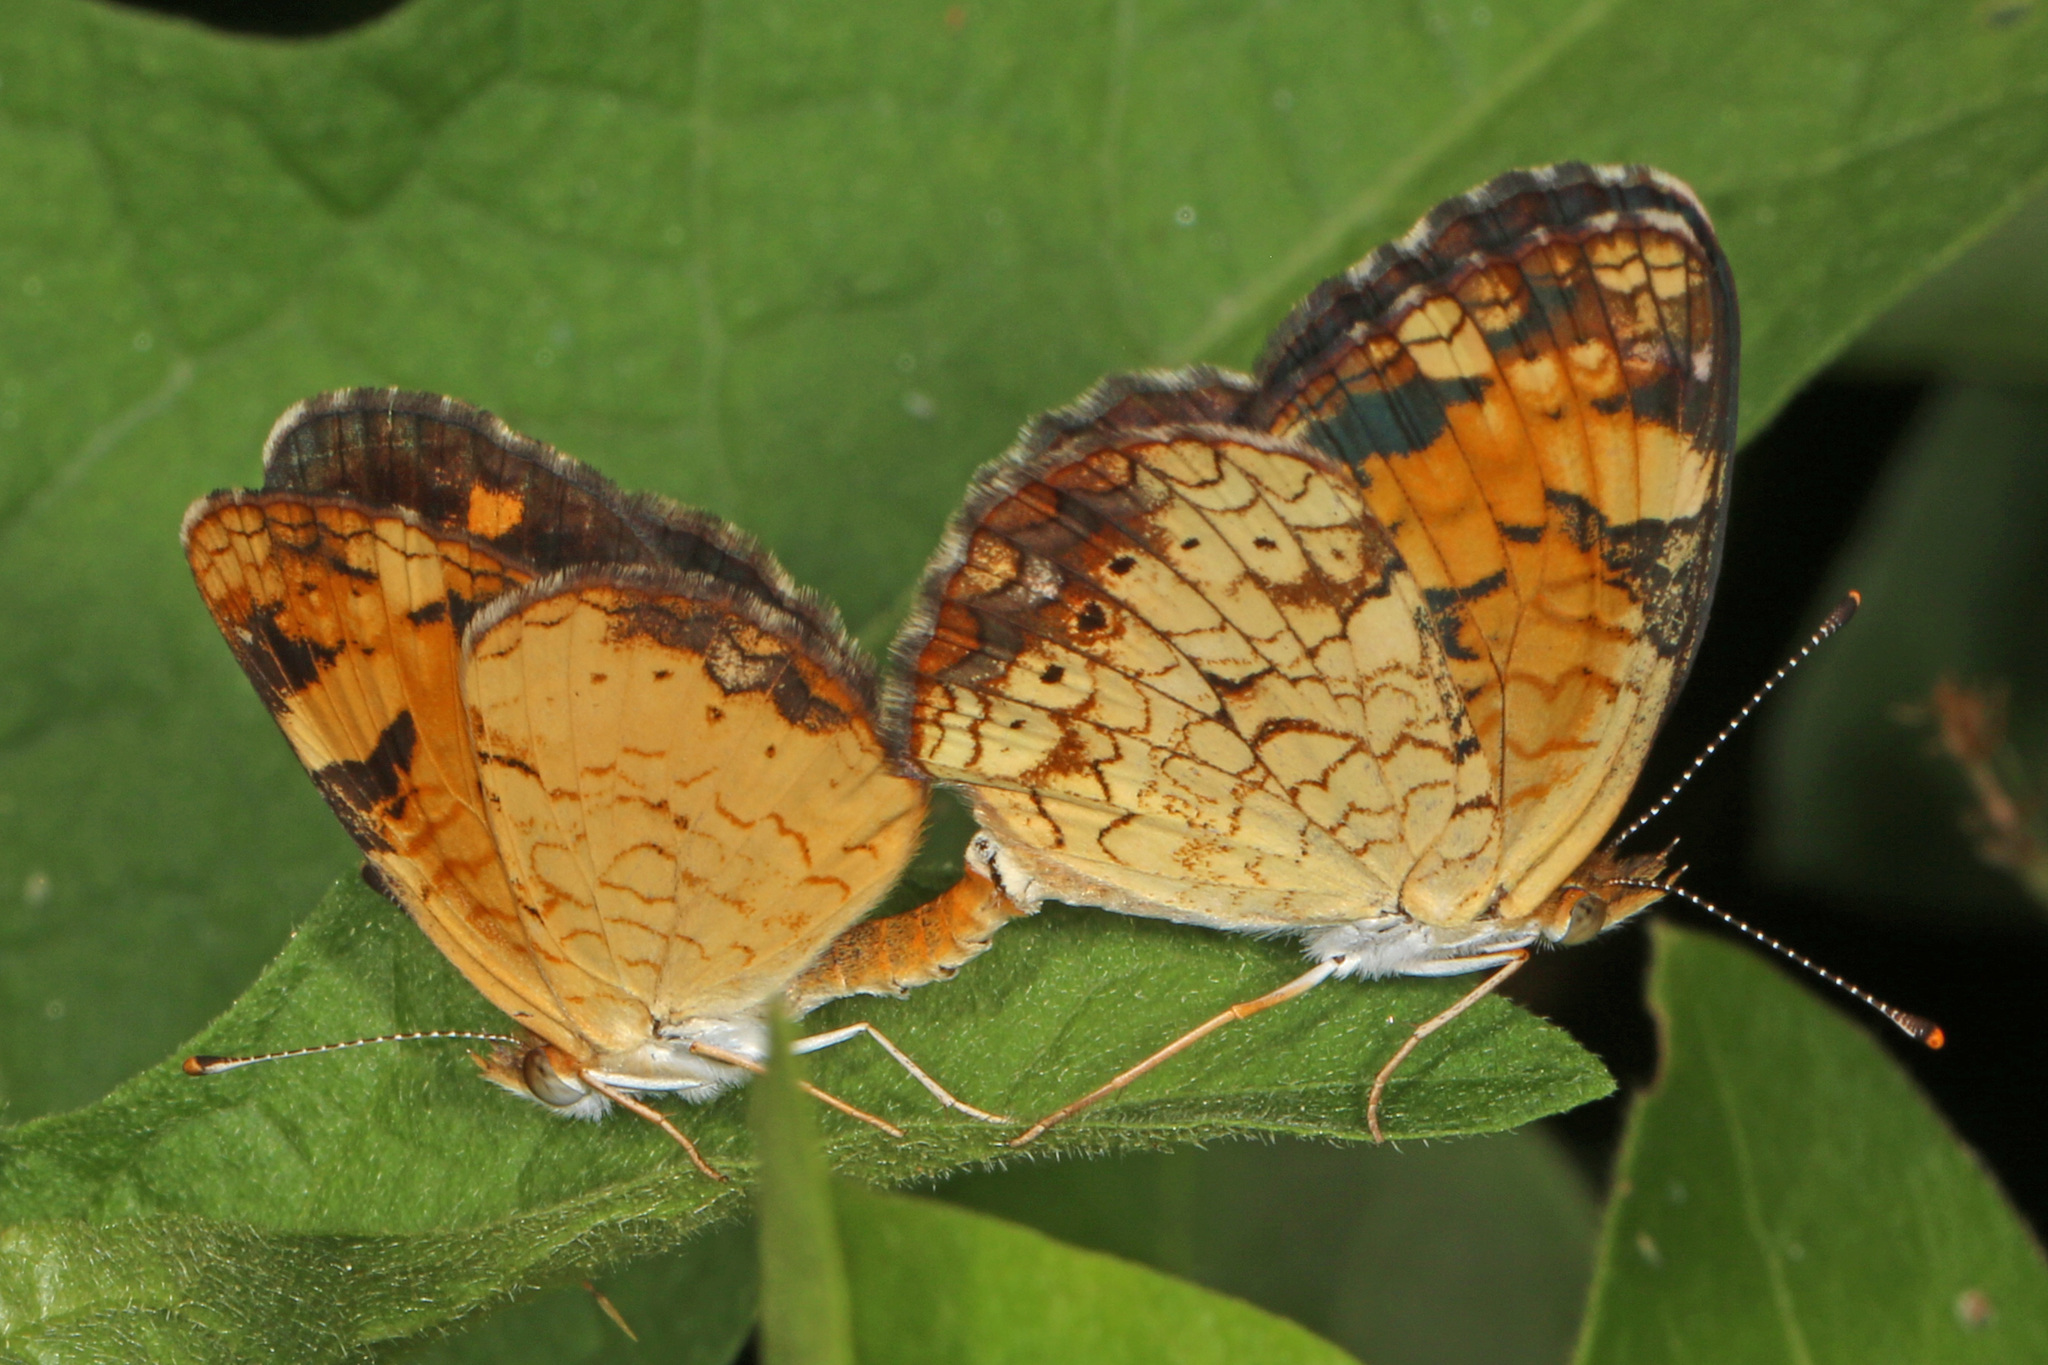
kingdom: Animalia
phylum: Arthropoda
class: Insecta
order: Lepidoptera
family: Nymphalidae
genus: Phyciodes
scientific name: Phyciodes tharos
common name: Pearl crescent
